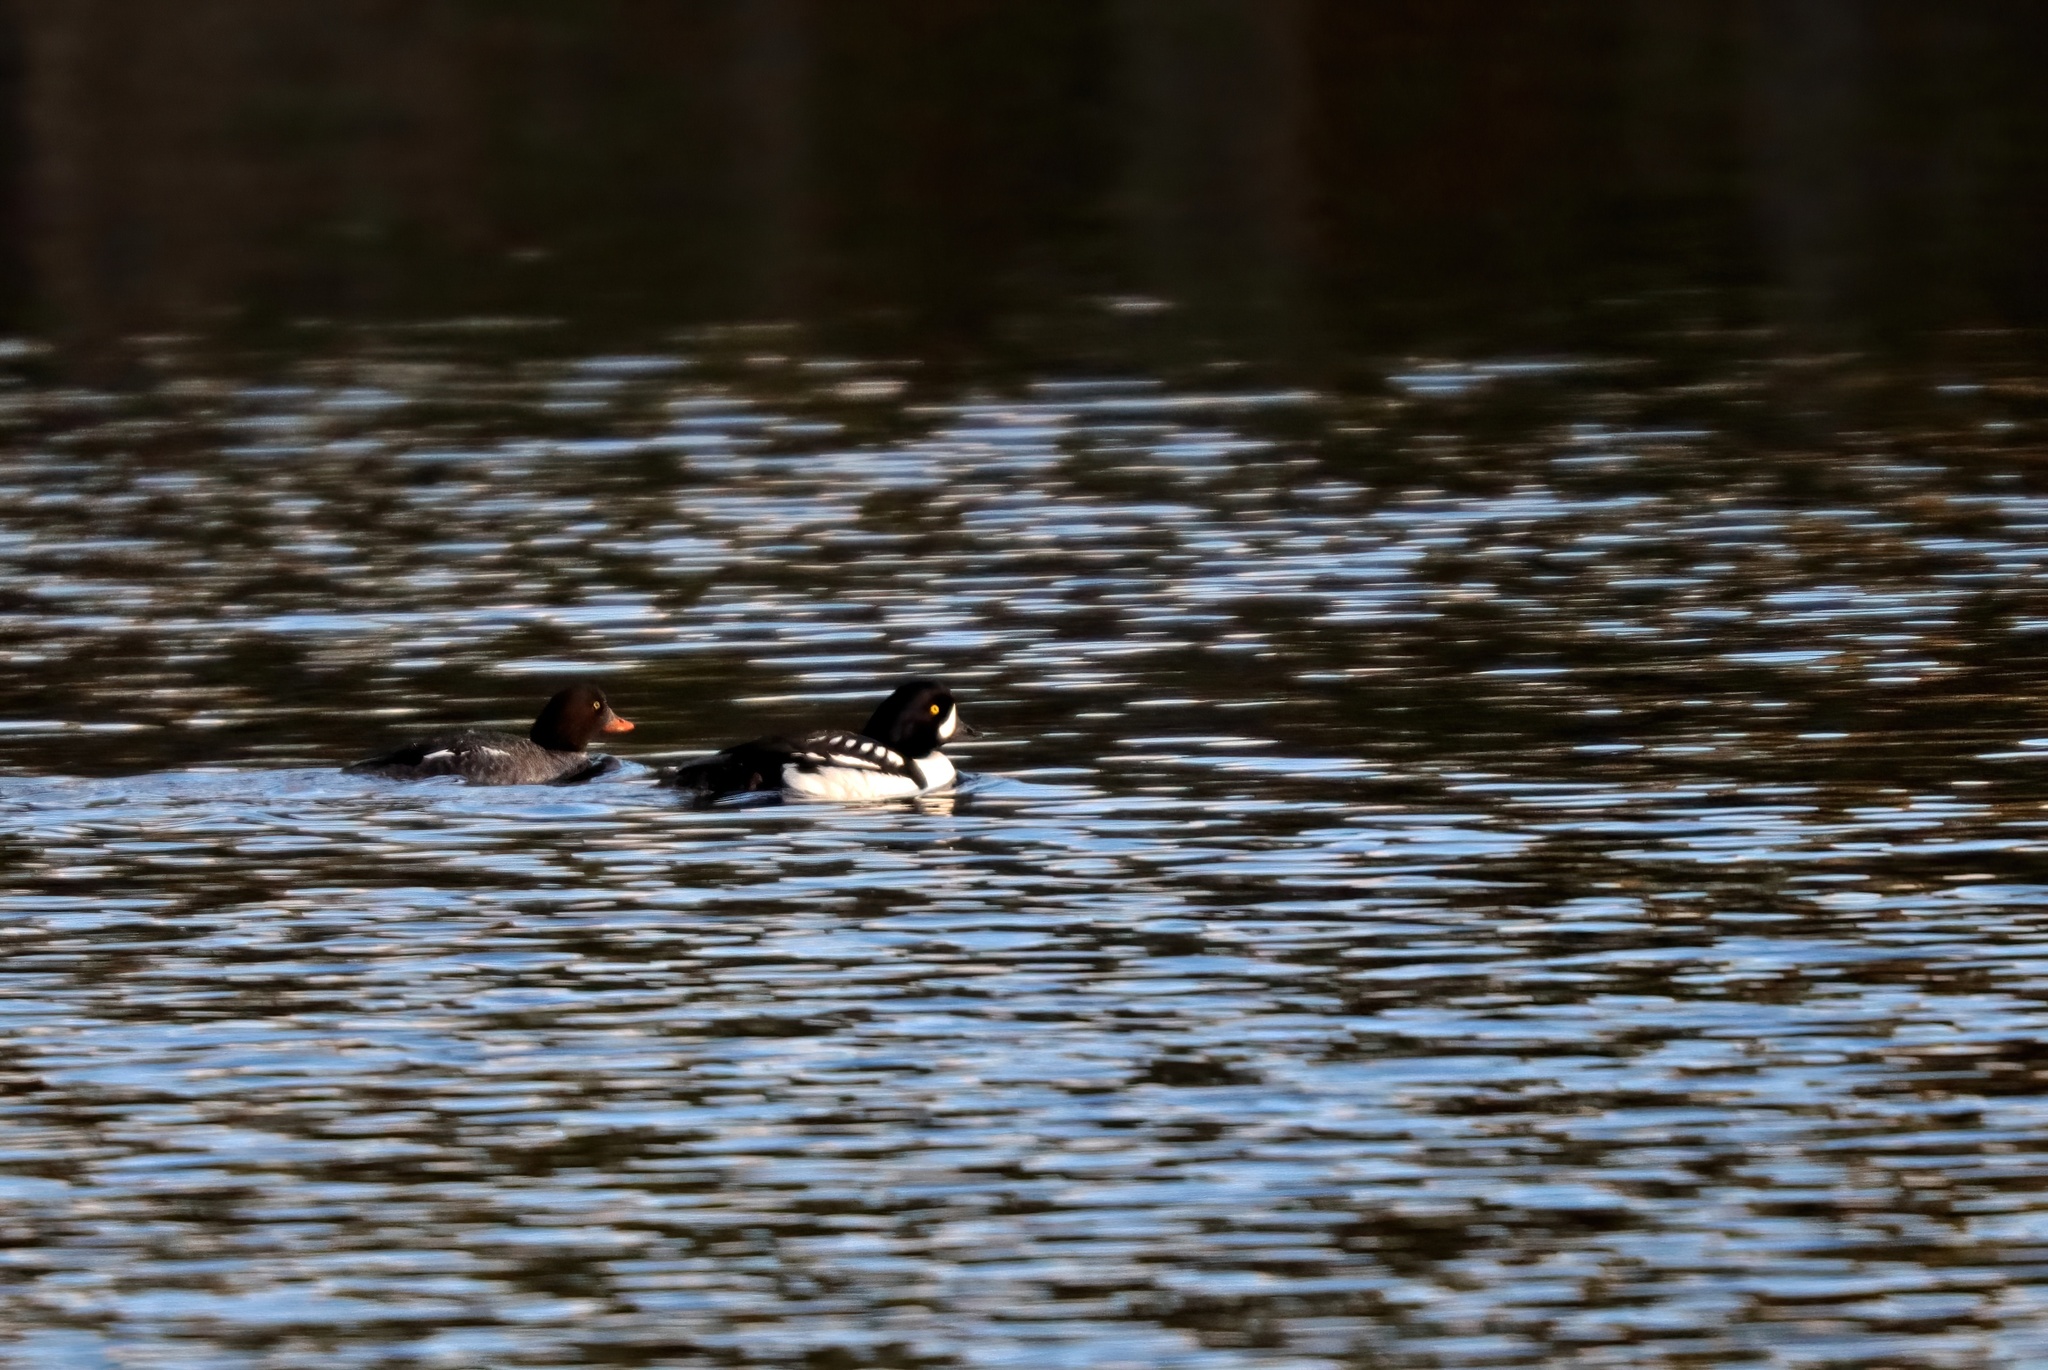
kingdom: Animalia
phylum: Chordata
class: Aves
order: Anseriformes
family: Anatidae
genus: Bucephala
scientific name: Bucephala islandica
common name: Barrow's goldeneye
